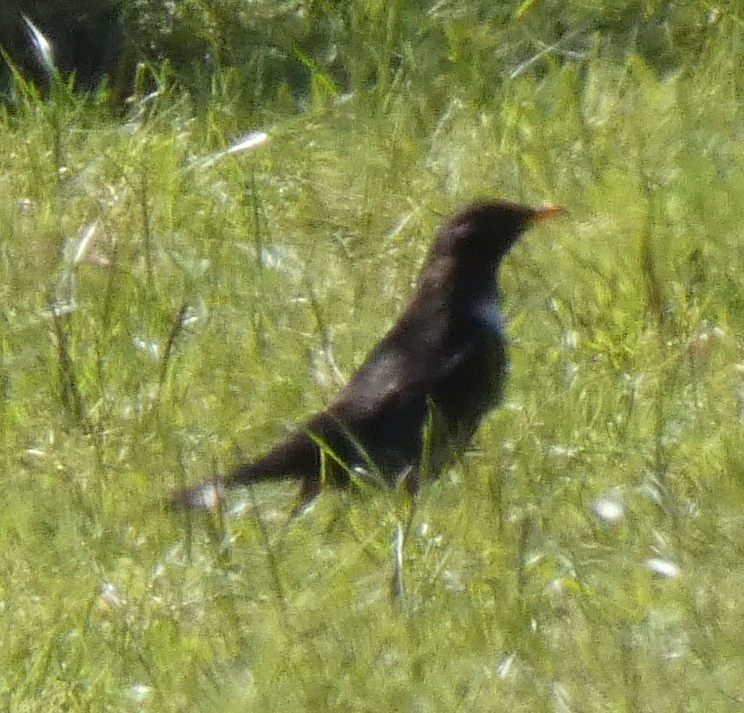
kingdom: Animalia
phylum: Chordata
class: Aves
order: Passeriformes
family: Turdidae
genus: Turdus
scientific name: Turdus torquatus
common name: Ring ouzel
